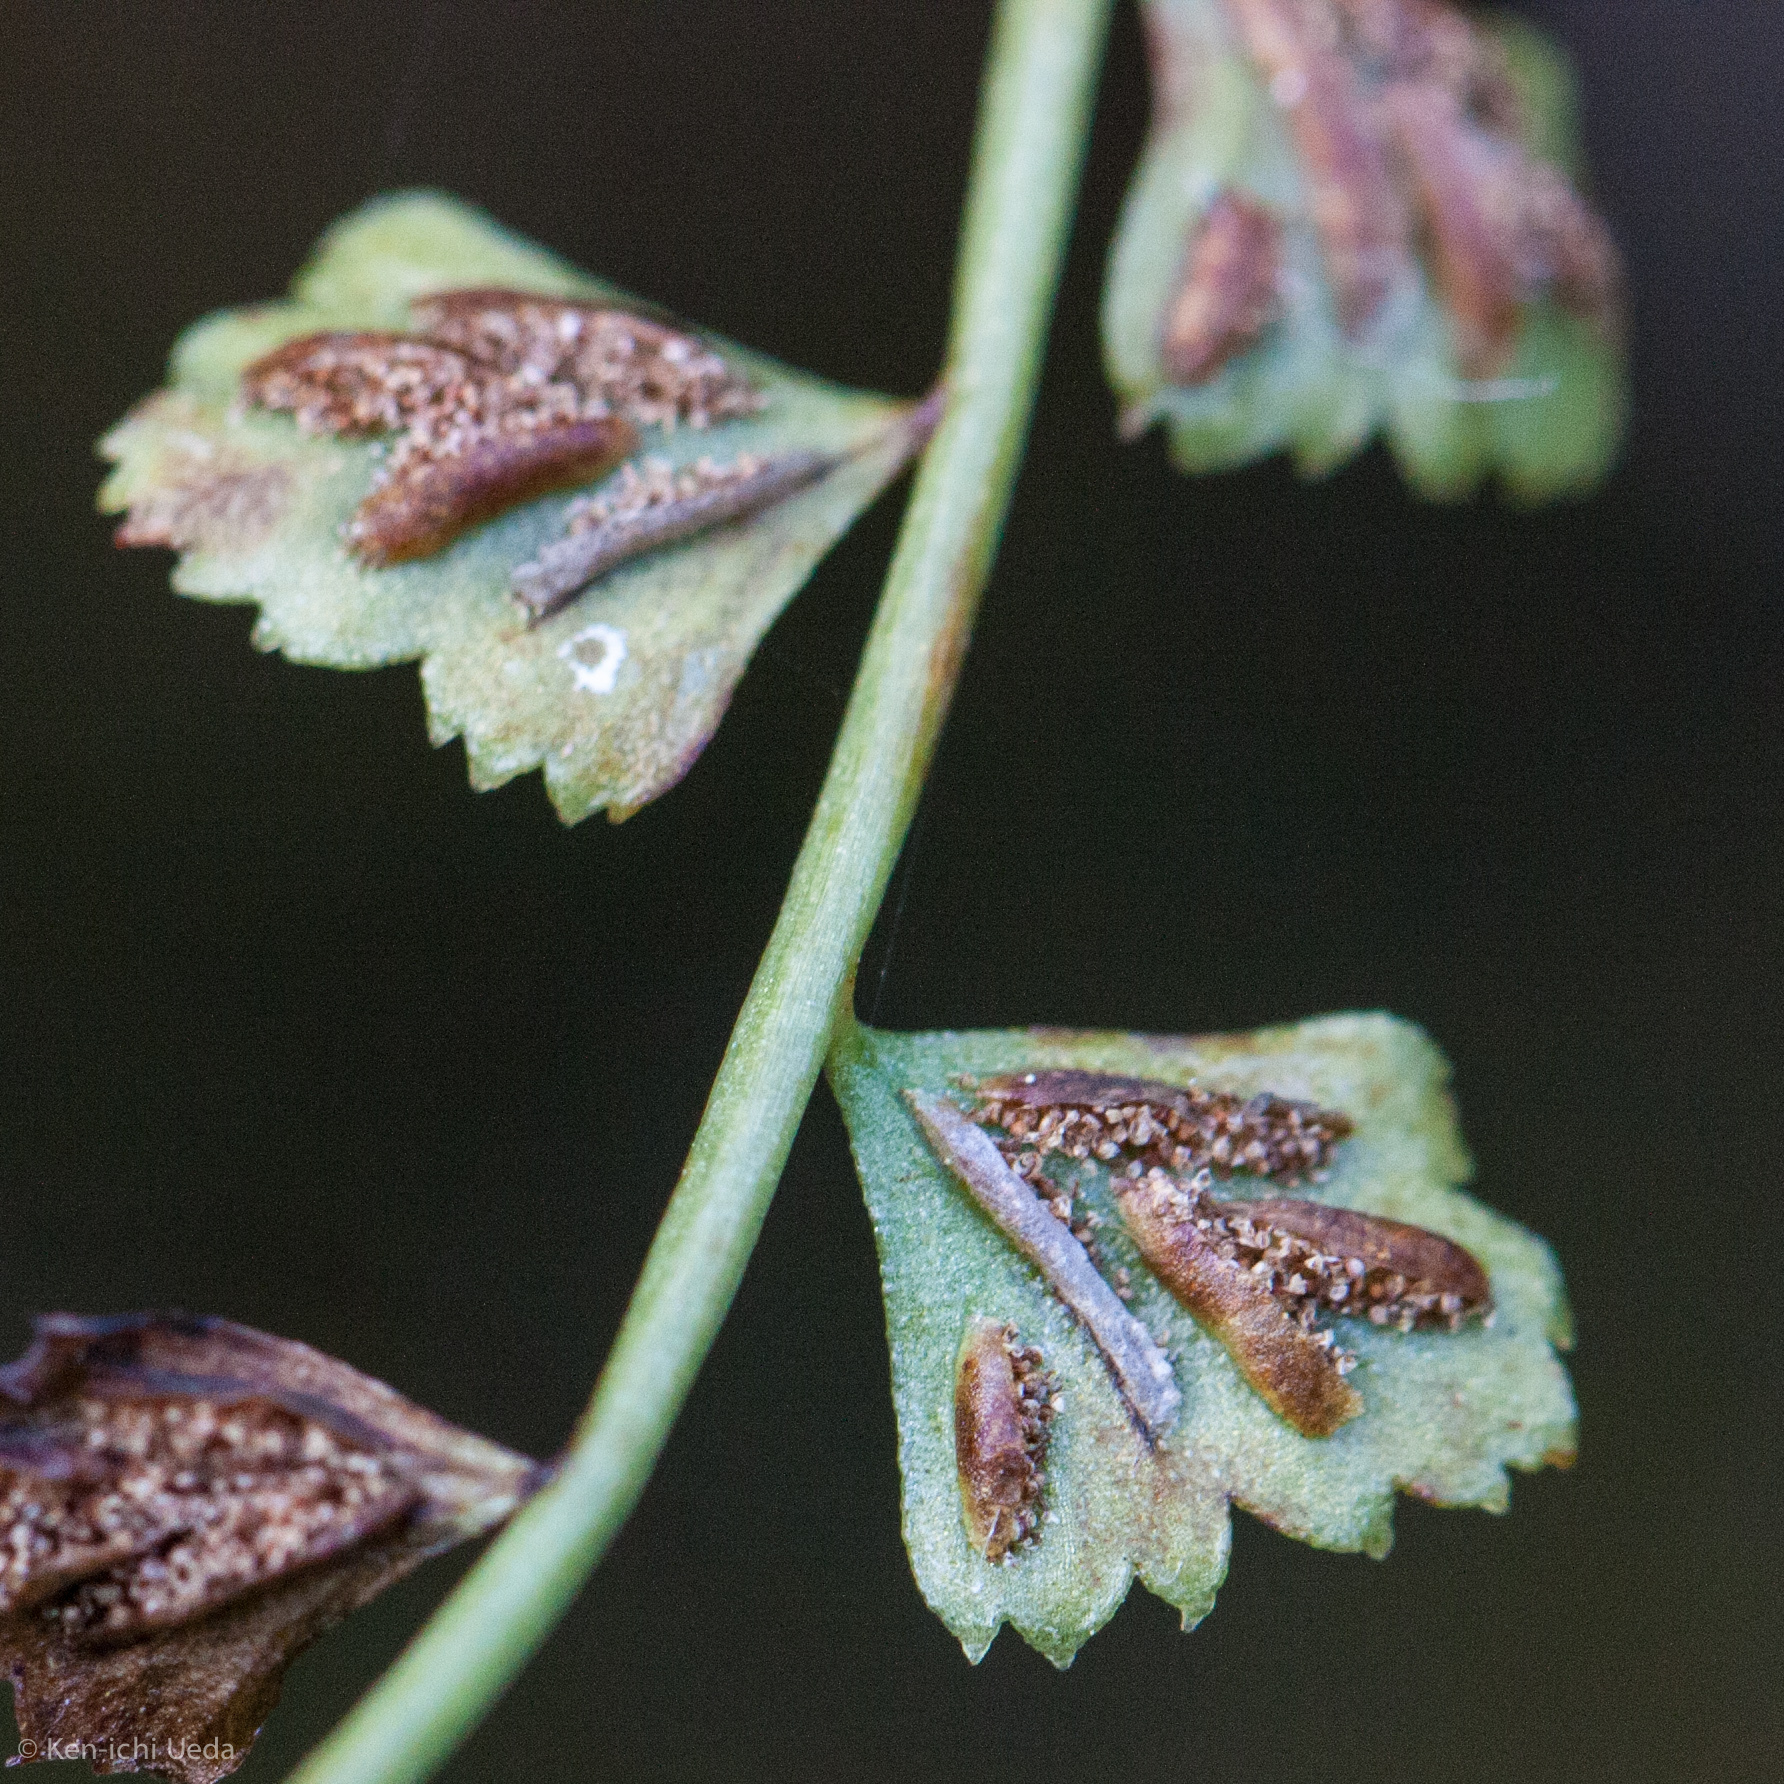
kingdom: Plantae
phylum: Tracheophyta
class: Polypodiopsida
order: Polypodiales
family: Aspleniaceae
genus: Asplenium
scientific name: Asplenium flabellifolium
